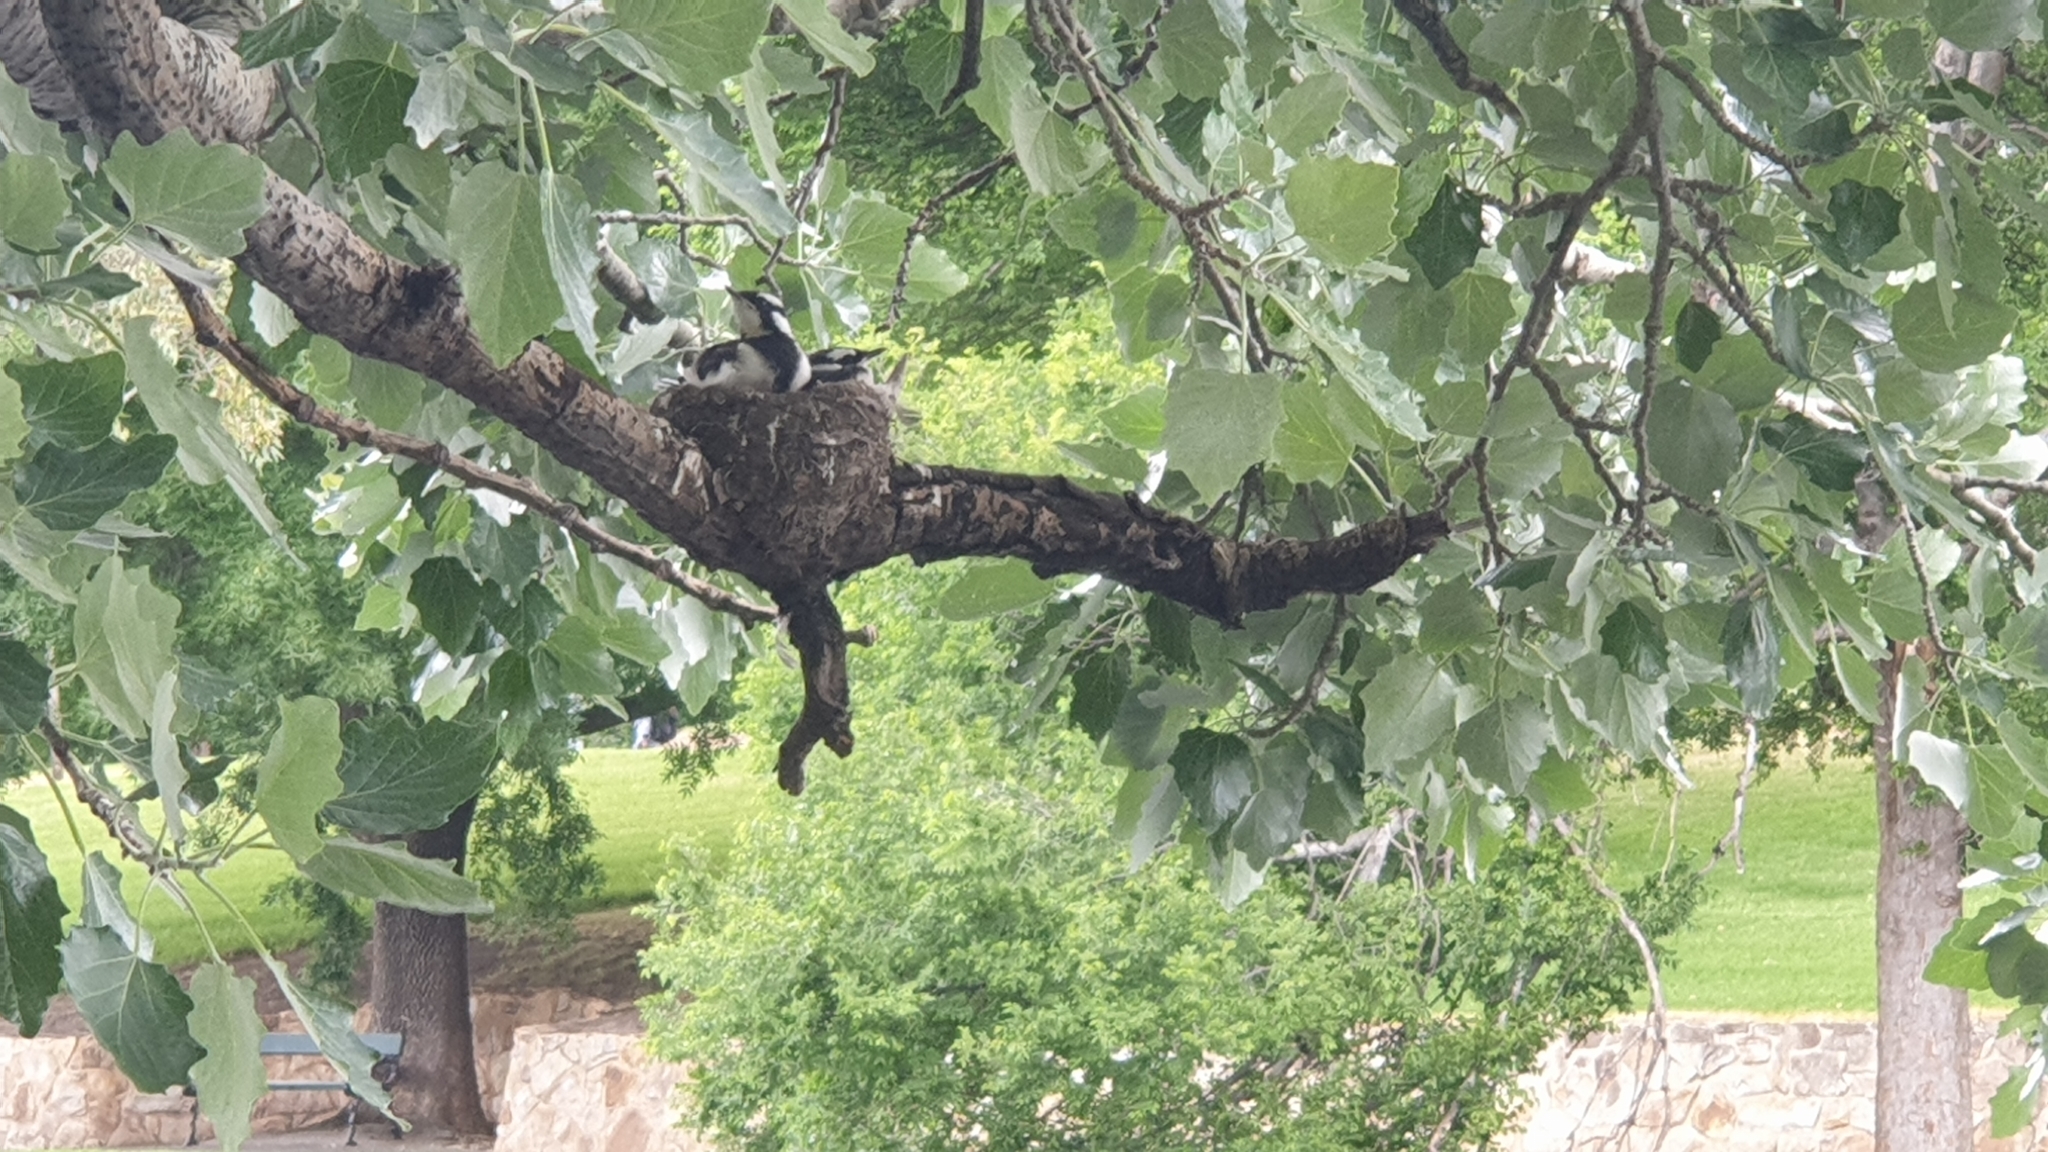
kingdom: Animalia
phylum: Chordata
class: Aves
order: Passeriformes
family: Monarchidae
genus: Grallina
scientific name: Grallina cyanoleuca
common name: Magpie-lark
